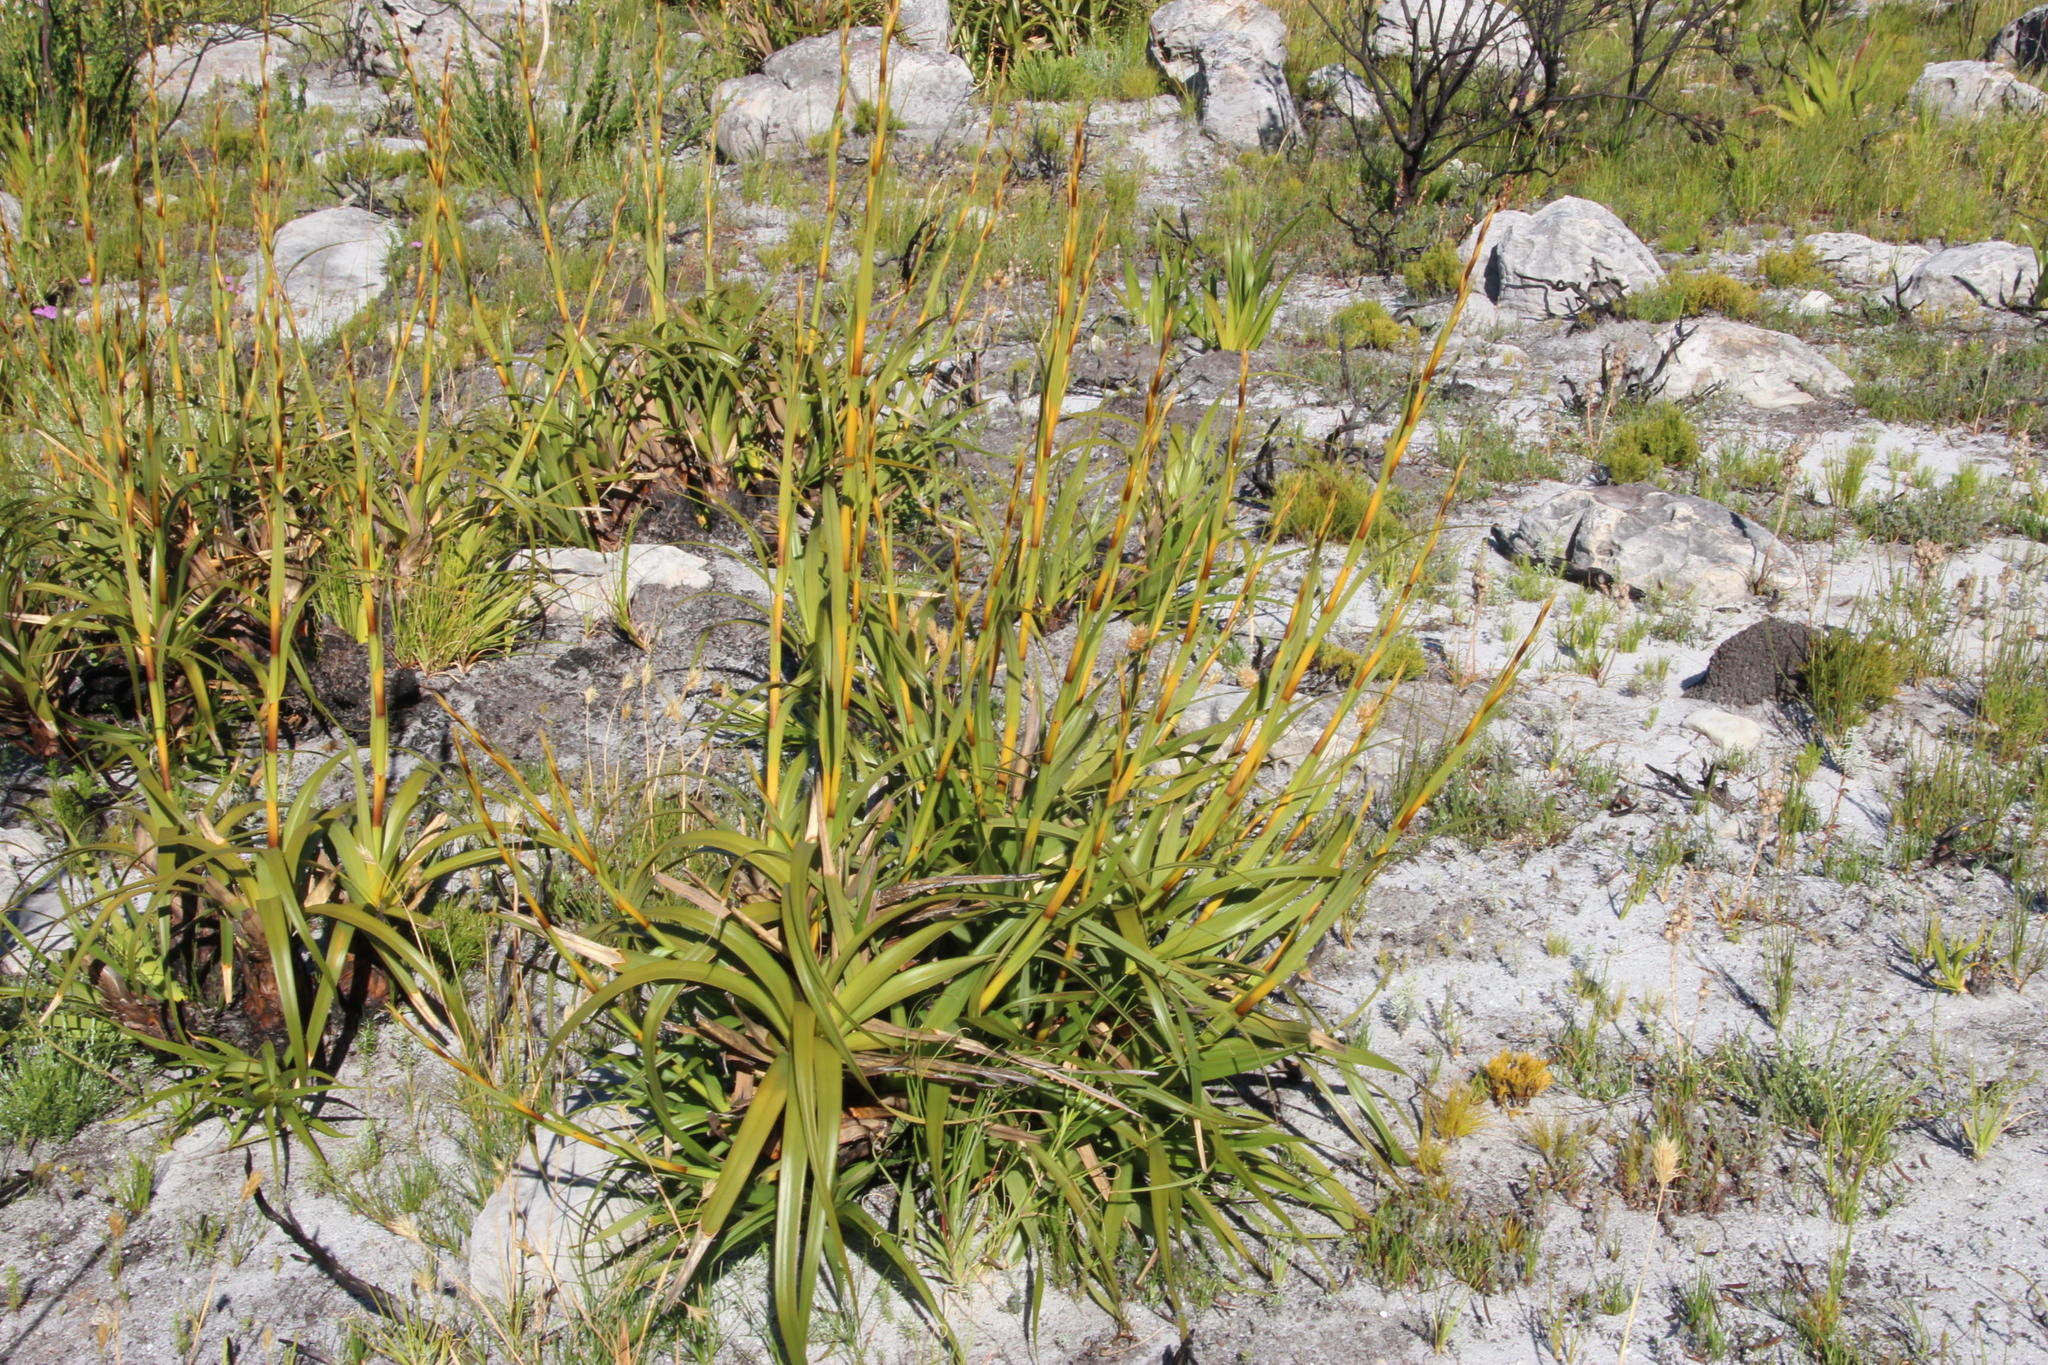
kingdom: Plantae
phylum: Tracheophyta
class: Liliopsida
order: Poales
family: Cyperaceae
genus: Tetraria
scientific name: Tetraria thermalis
